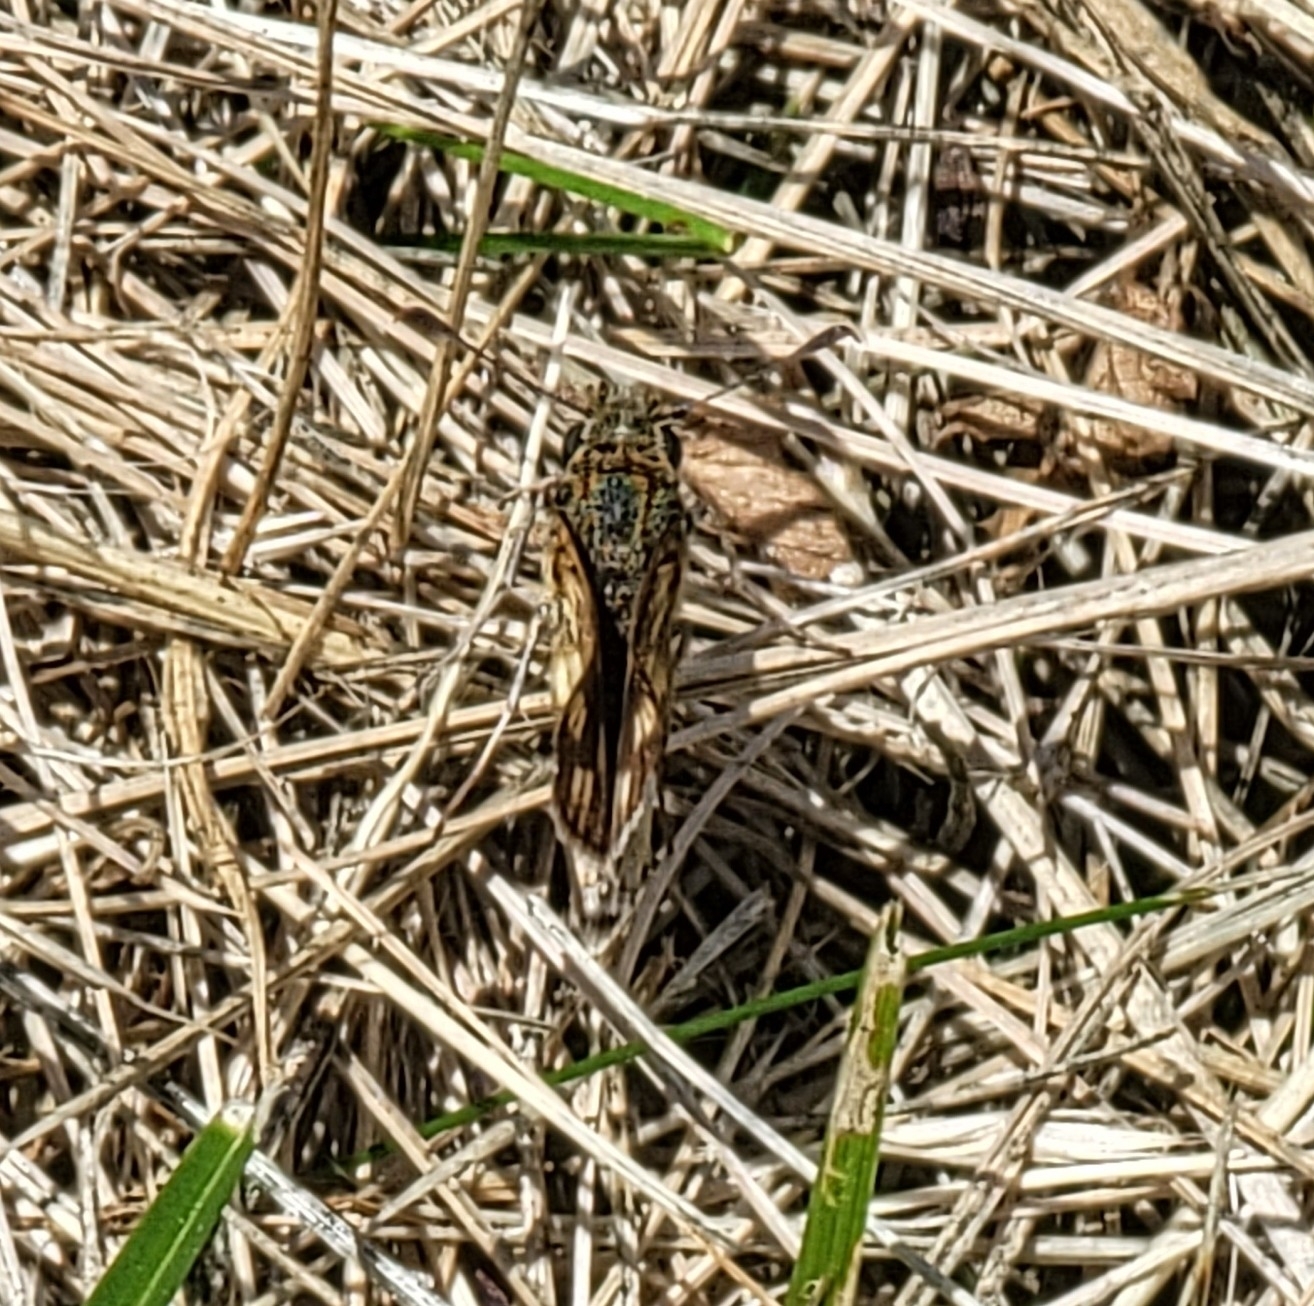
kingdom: Animalia
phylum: Arthropoda
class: Insecta
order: Lepidoptera
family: Hesperiidae
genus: Polites
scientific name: Polites coras
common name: Peck's skipper
